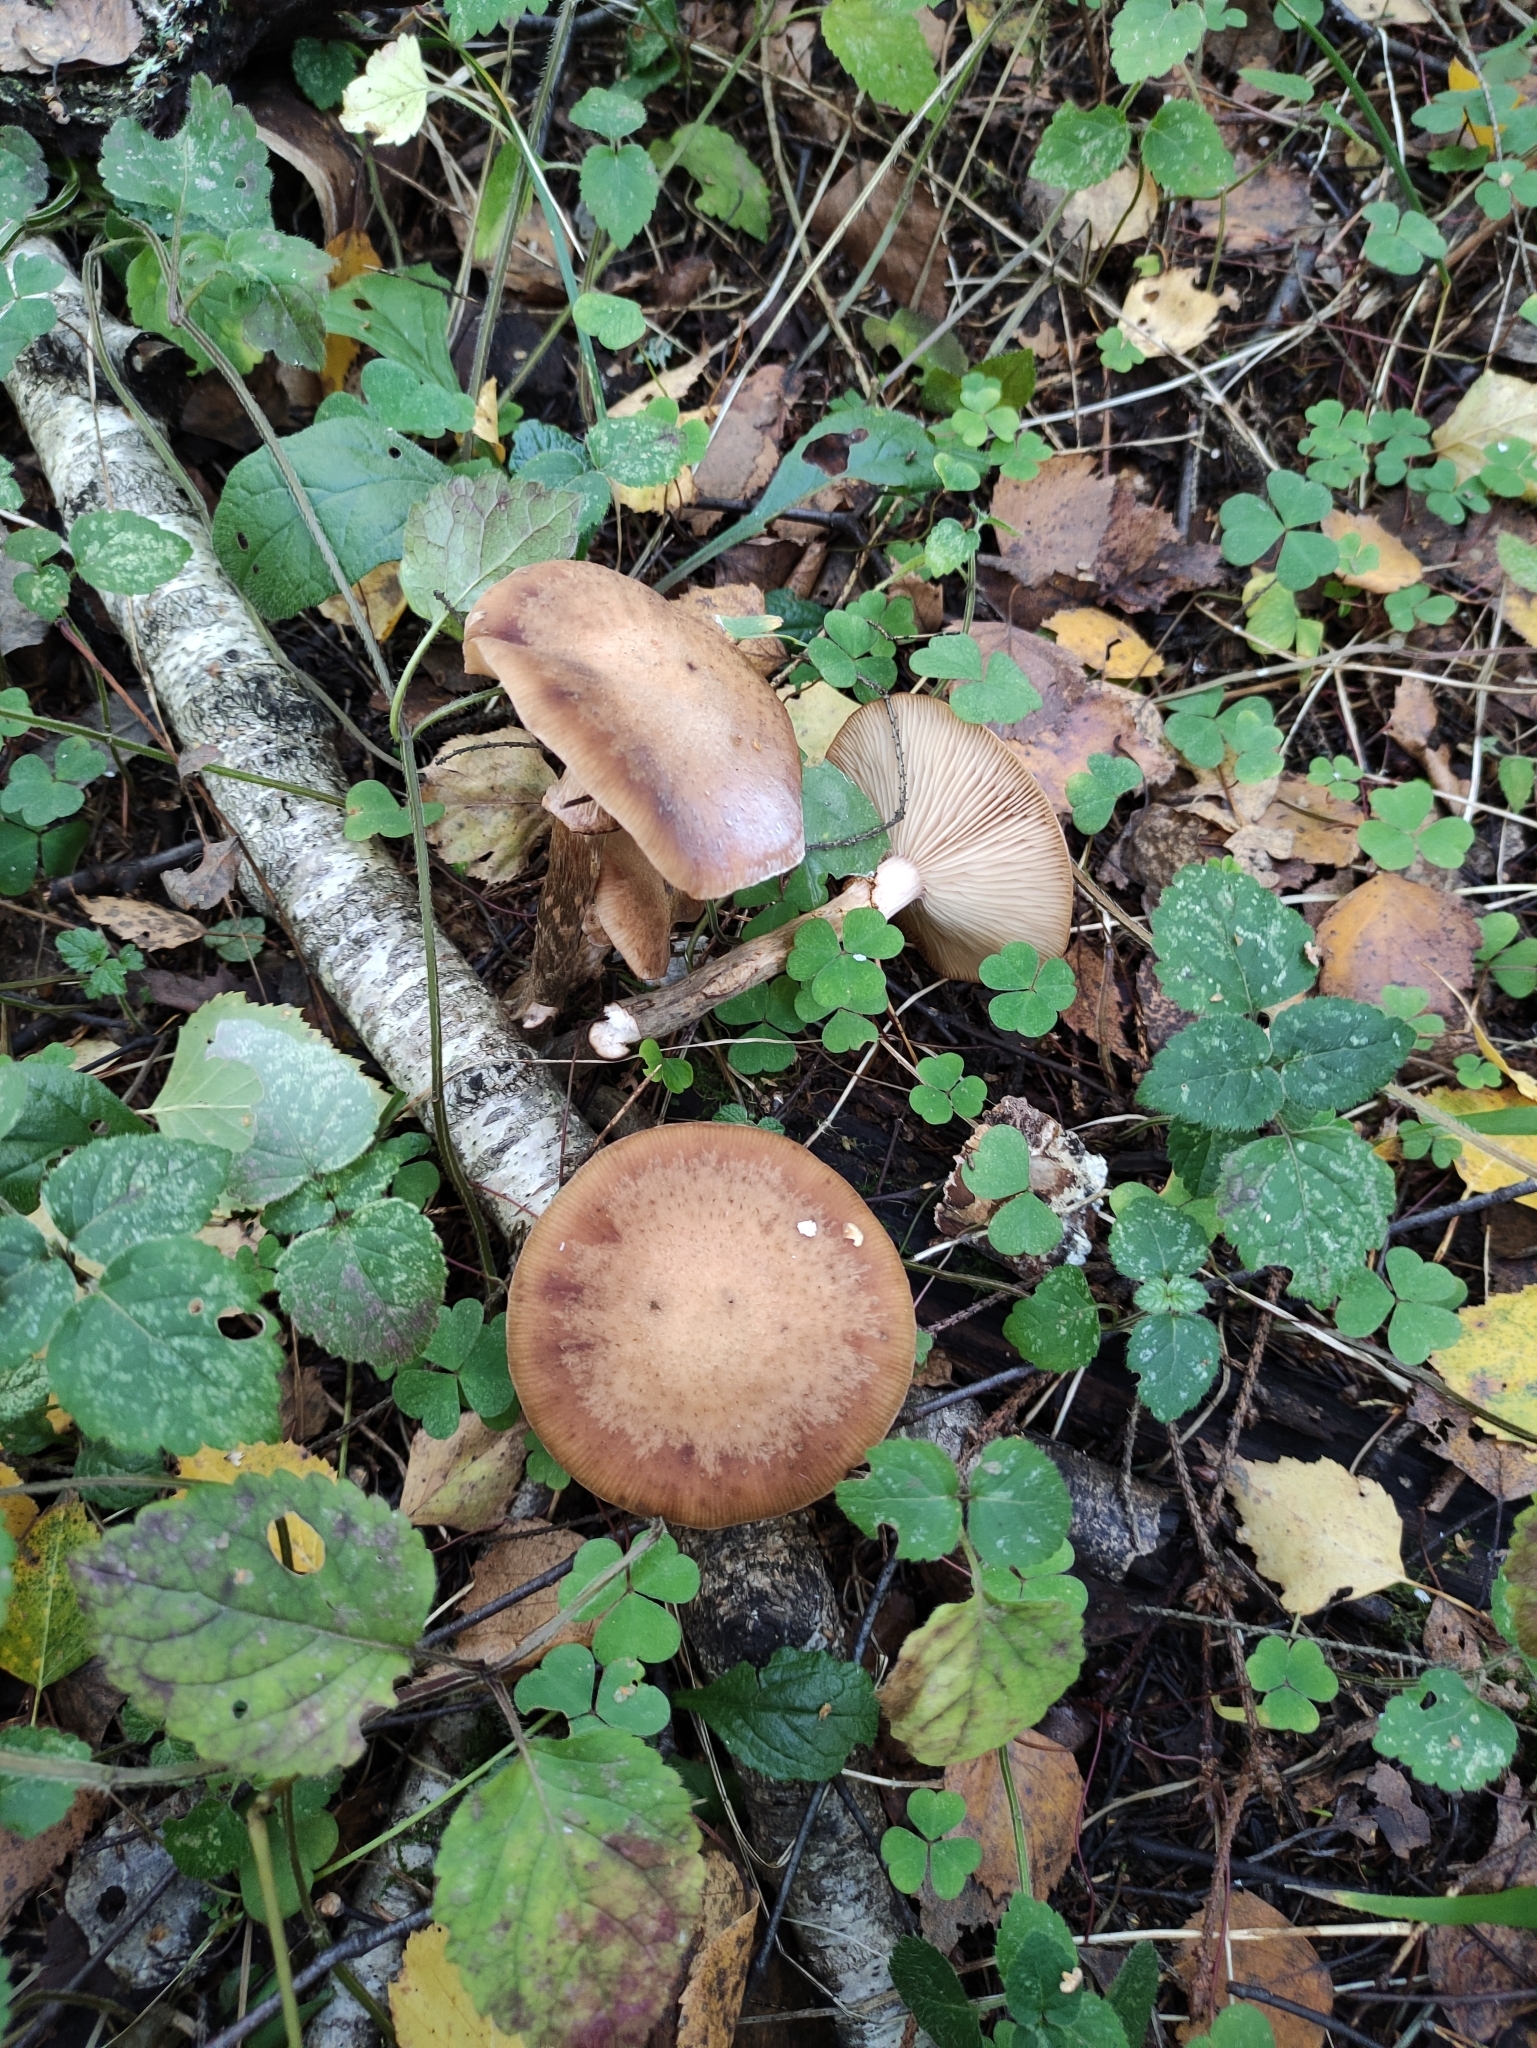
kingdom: Fungi
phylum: Basidiomycota
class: Agaricomycetes
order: Agaricales
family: Physalacriaceae
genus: Armillaria
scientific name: Armillaria borealis
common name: Northern honey fungus
